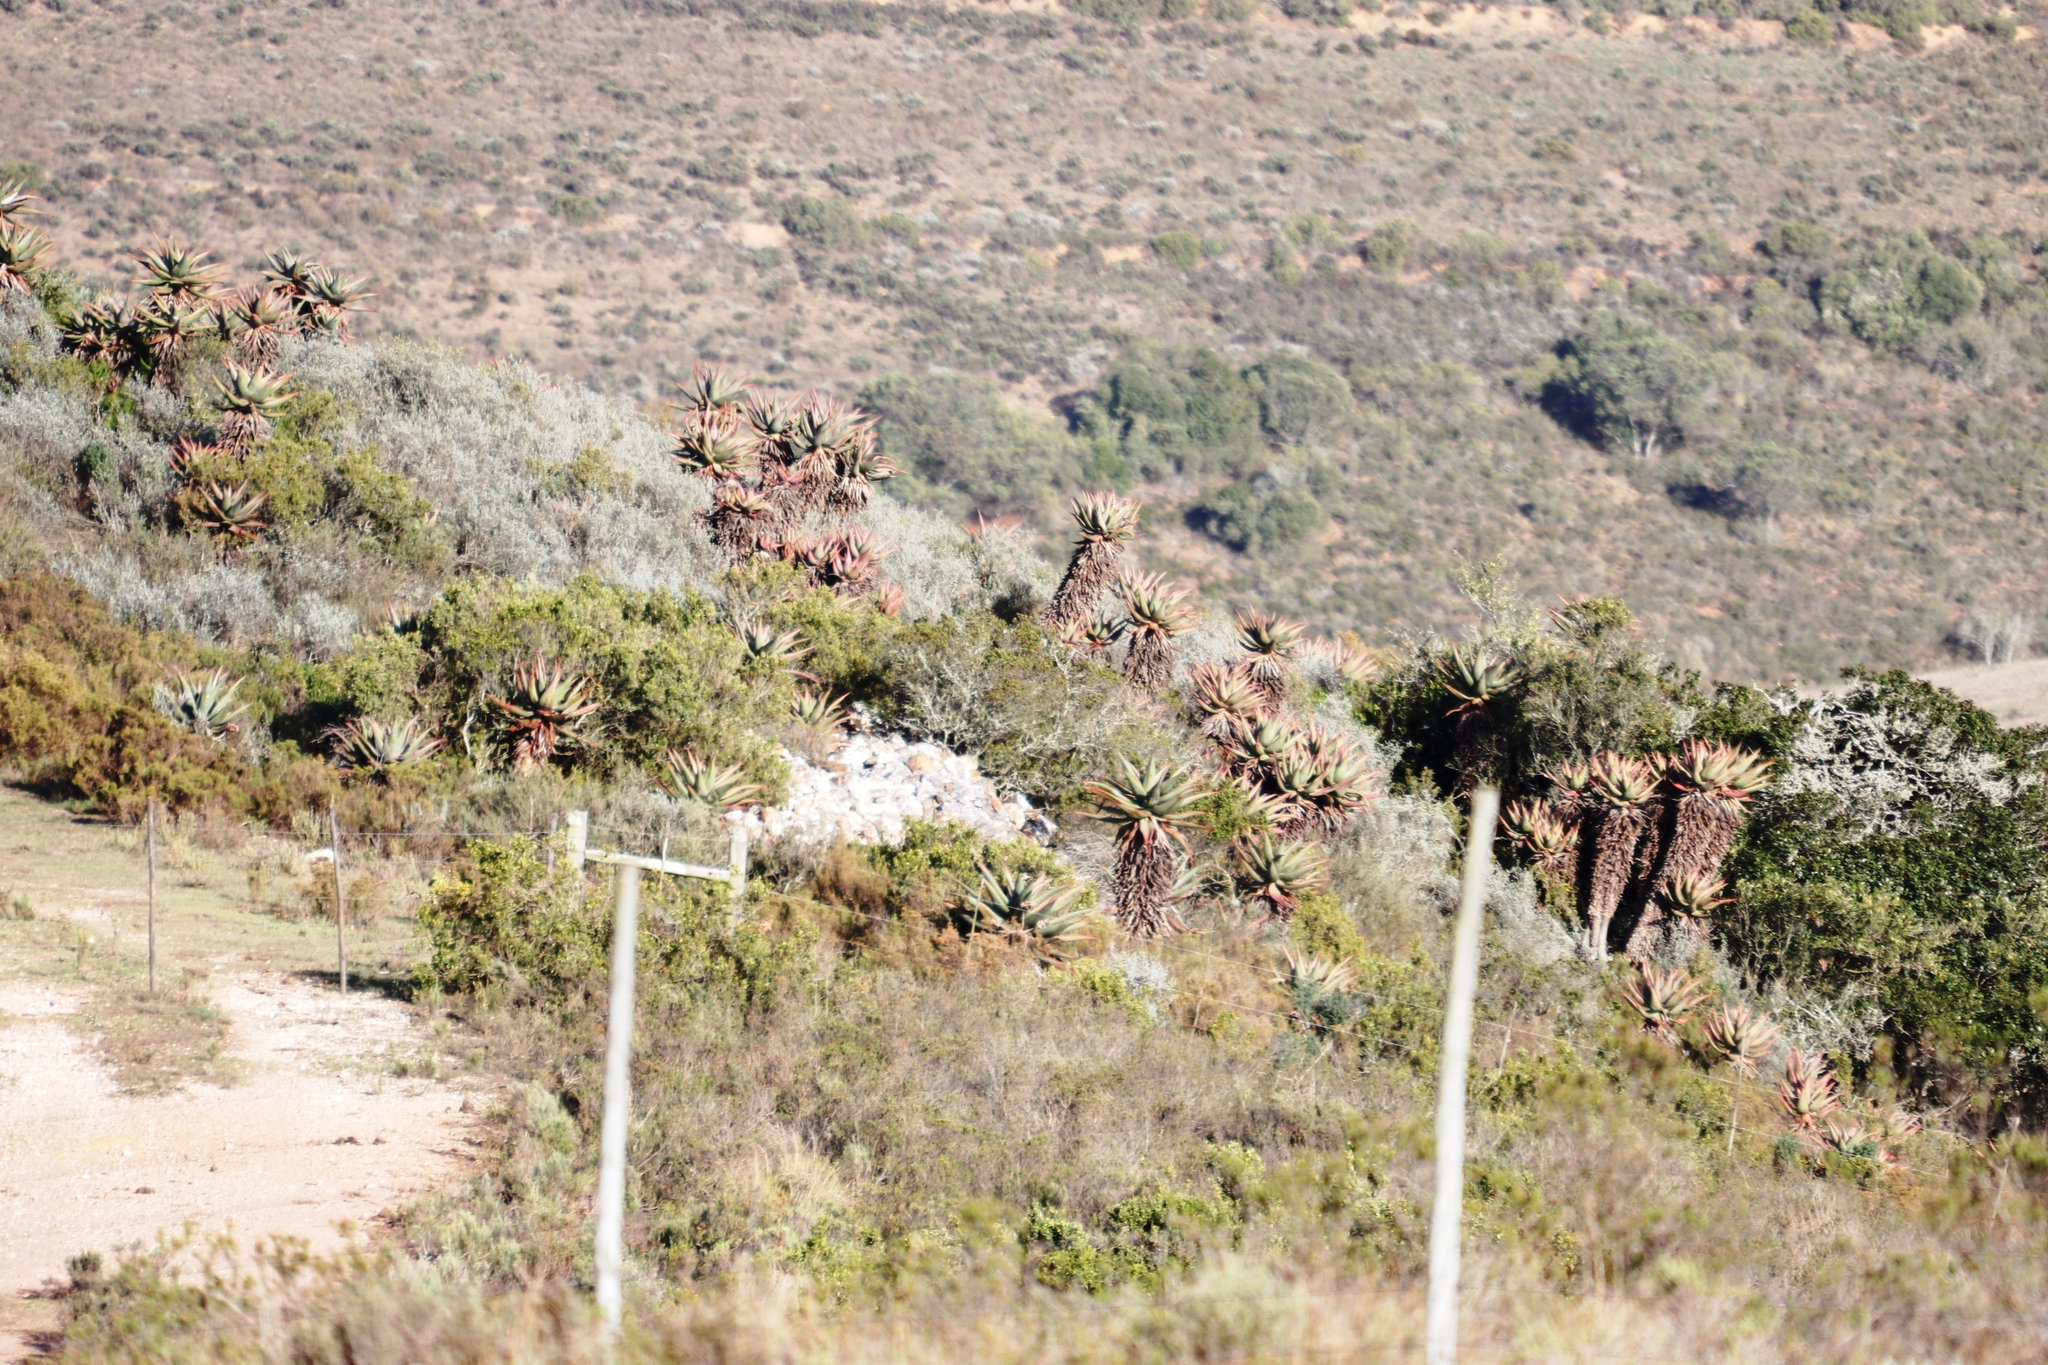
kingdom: Plantae
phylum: Tracheophyta
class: Liliopsida
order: Asparagales
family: Asphodelaceae
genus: Aloe
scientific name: Aloe ferox
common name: Bitter aloe
